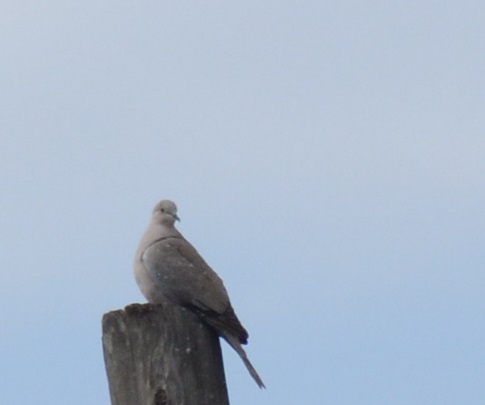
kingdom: Animalia
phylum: Chordata
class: Aves
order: Columbiformes
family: Columbidae
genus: Streptopelia
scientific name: Streptopelia decaocto
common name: Eurasian collared dove
